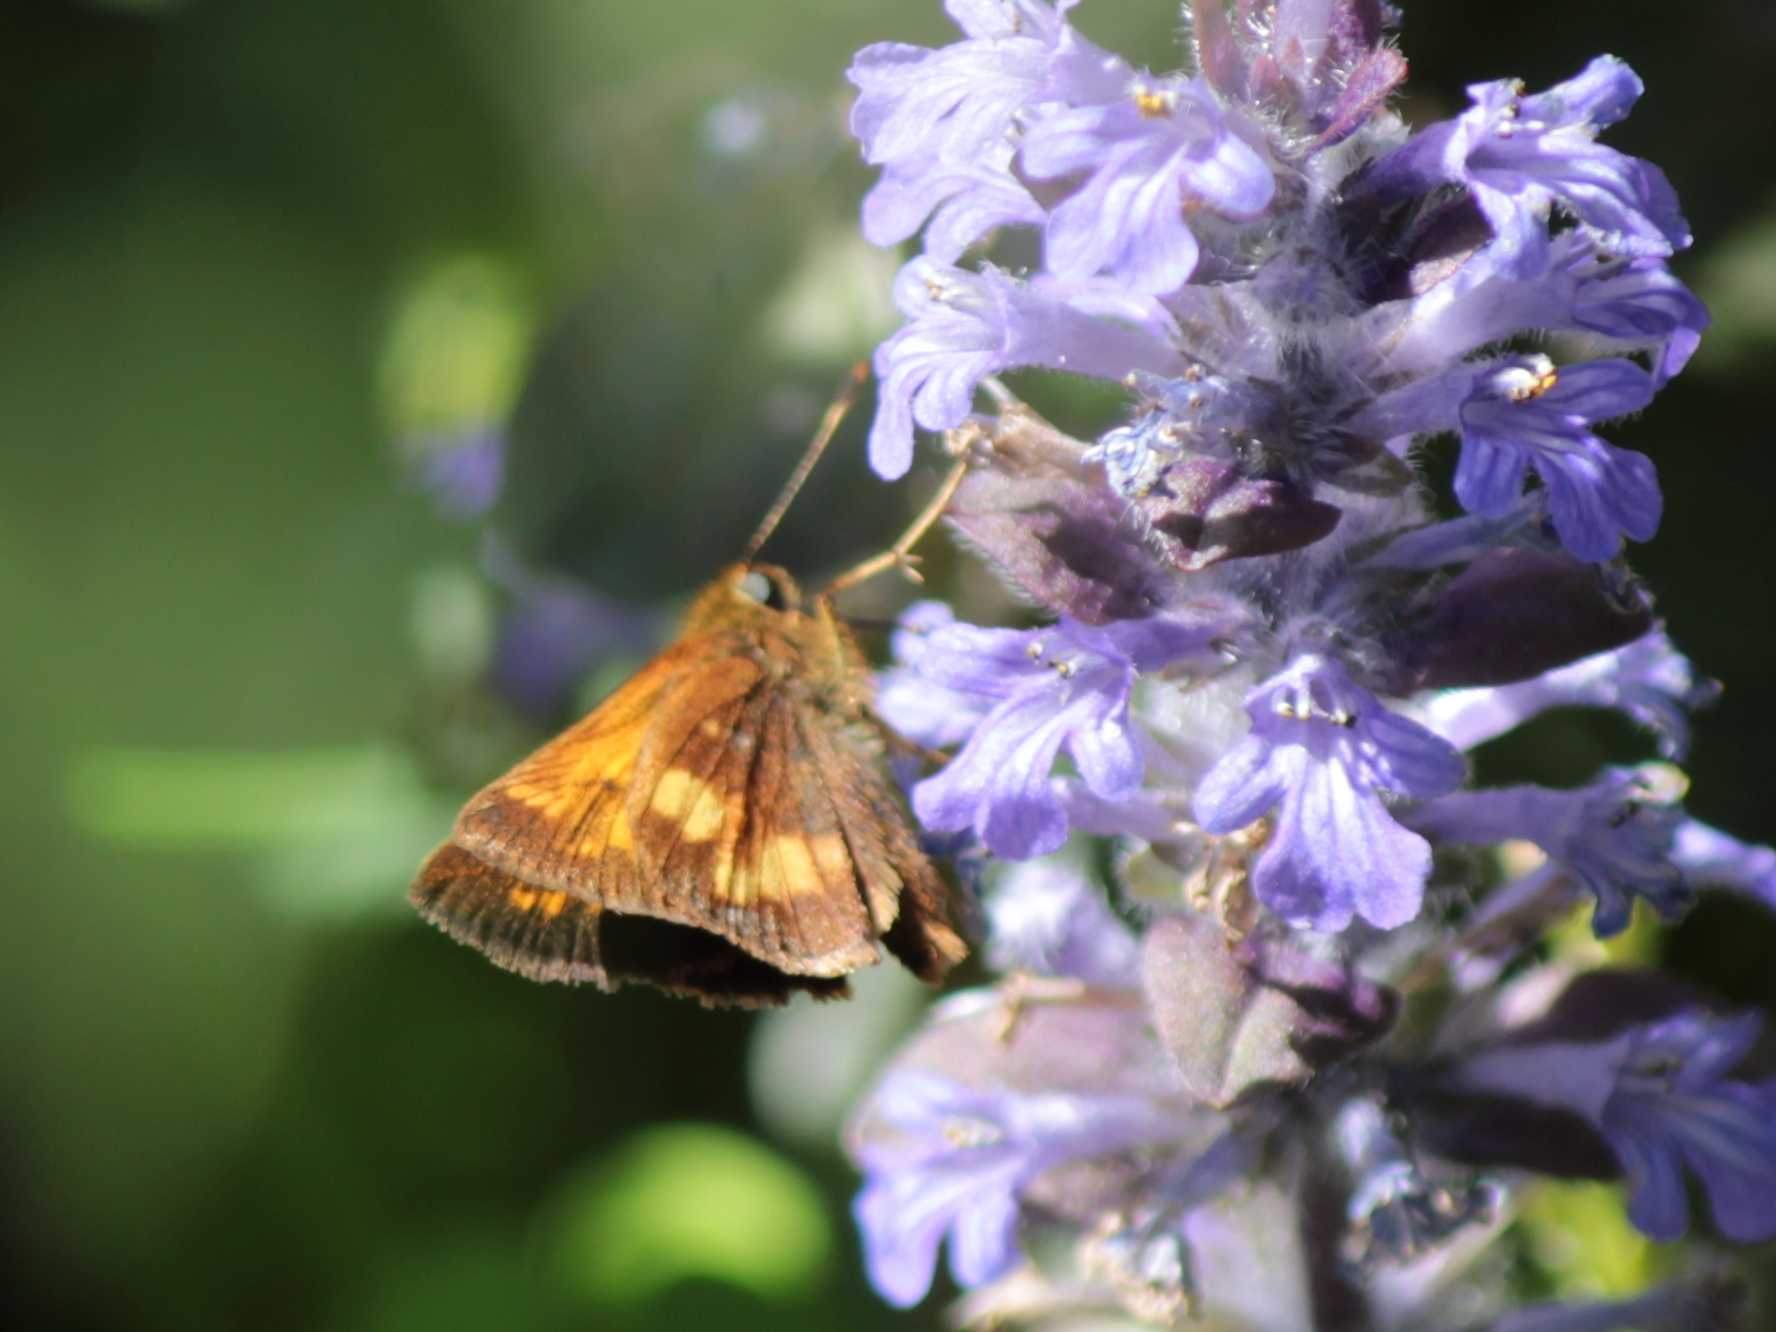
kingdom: Animalia
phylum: Arthropoda
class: Insecta
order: Lepidoptera
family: Hesperiidae
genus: Lon
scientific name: Lon hobomok
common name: Hobomok skipper
